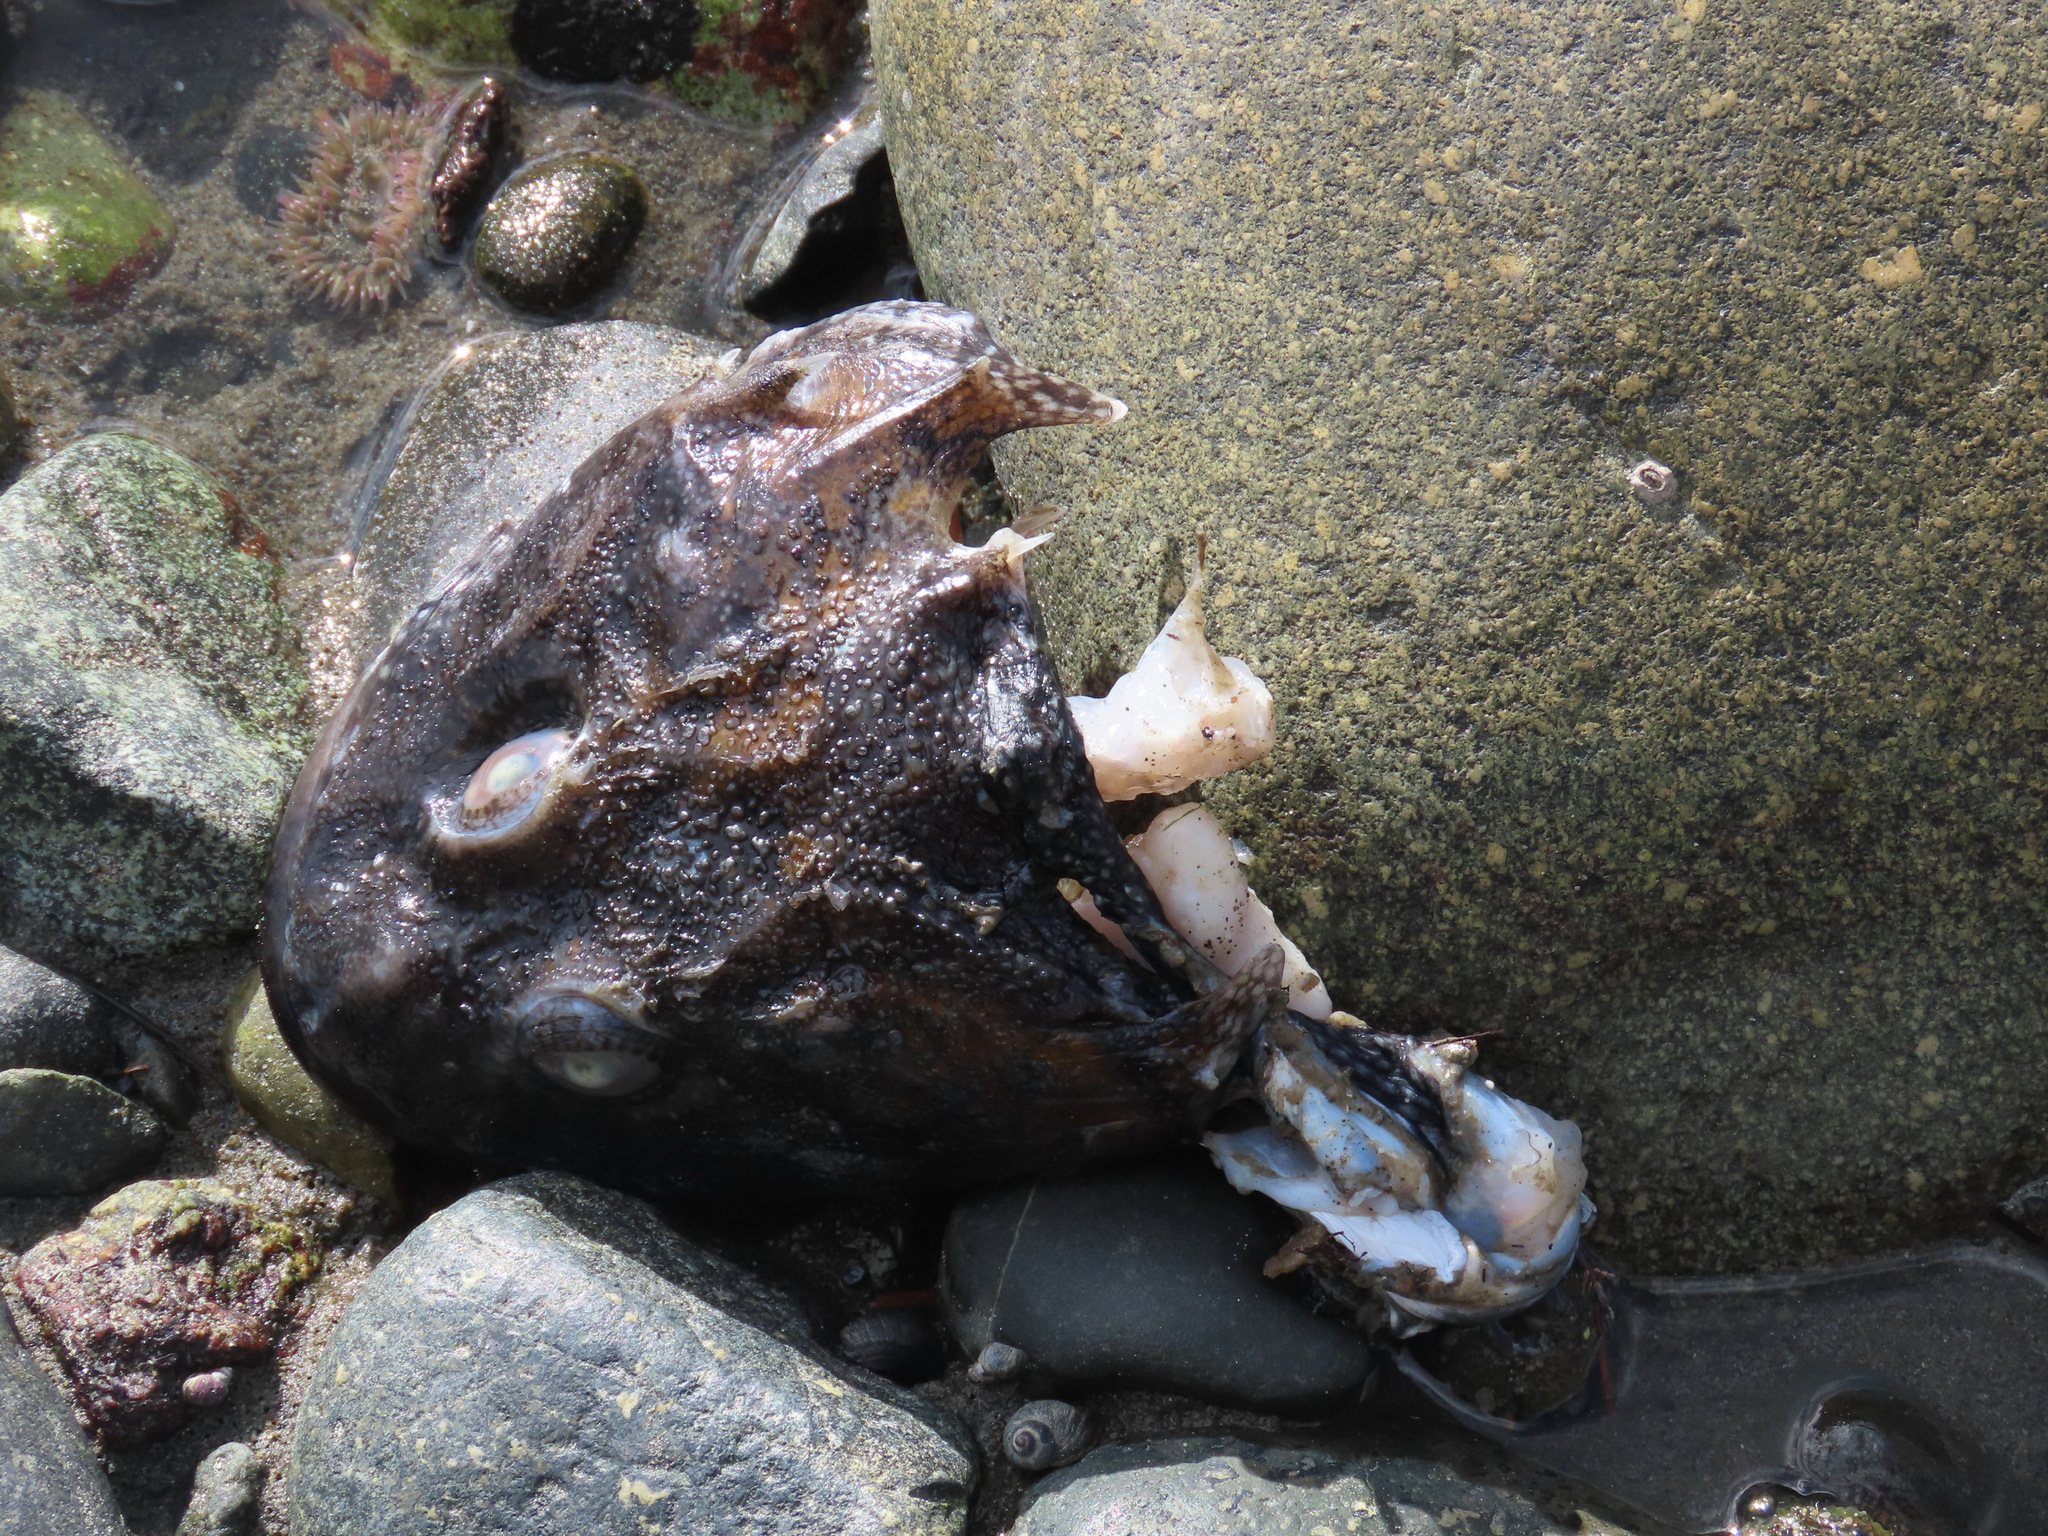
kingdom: Animalia
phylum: Chordata
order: Scorpaeniformes
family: Cottidae
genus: Myoxocephalus
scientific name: Myoxocephalus polyacanthocephalus
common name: Great sculpin
